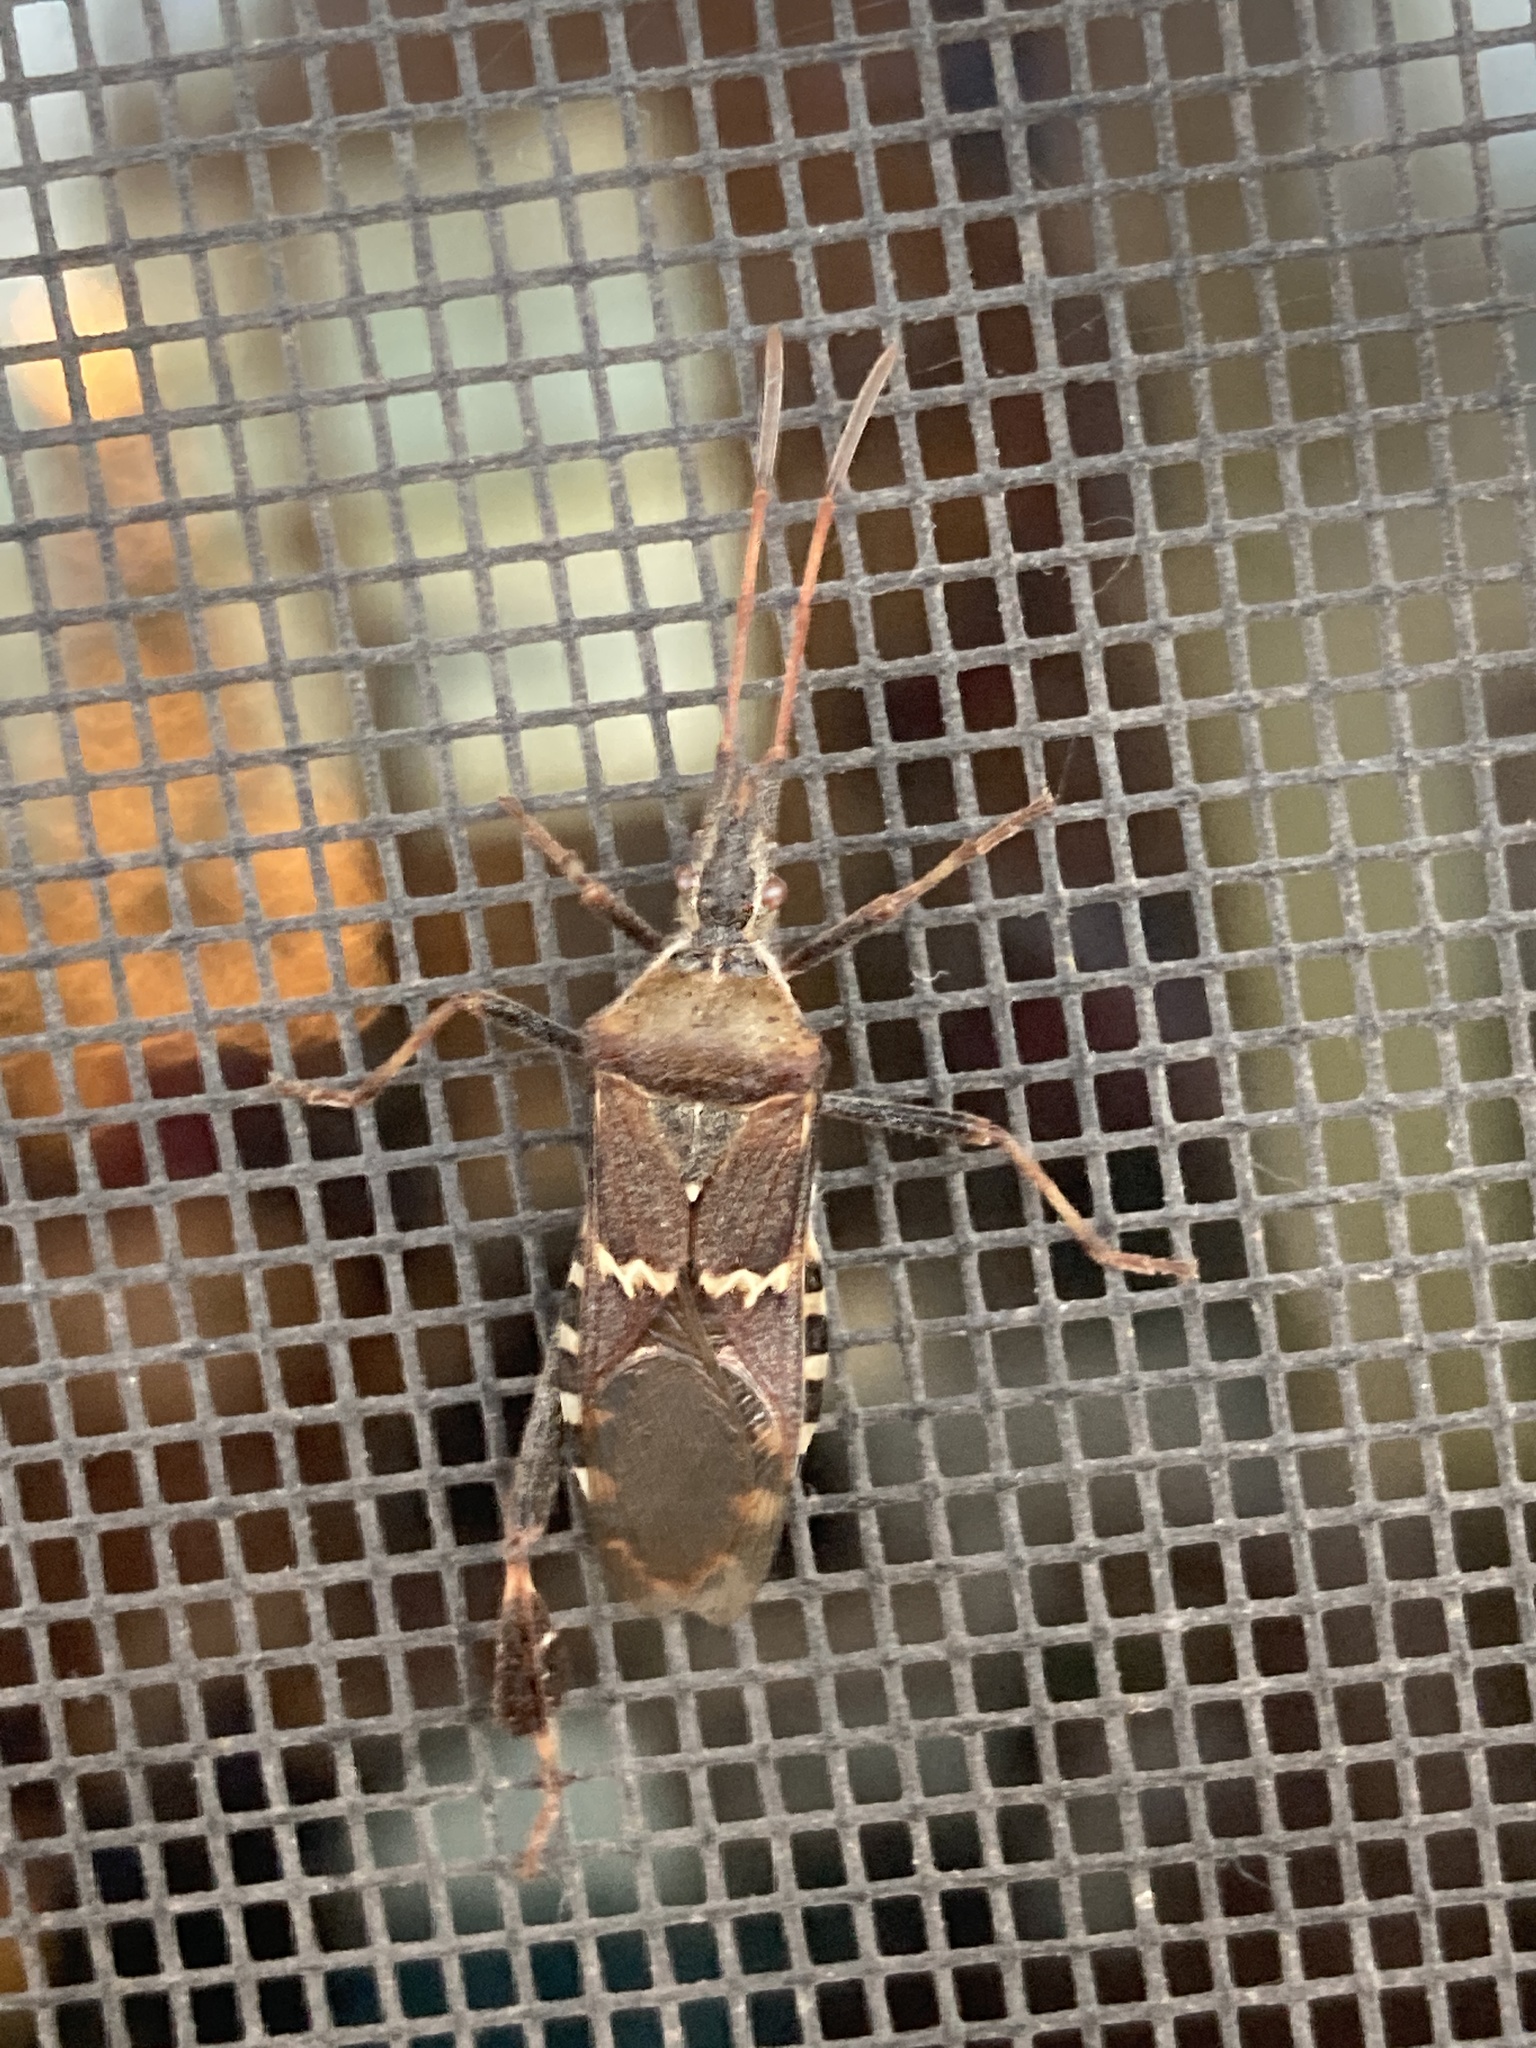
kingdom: Animalia
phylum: Arthropoda
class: Insecta
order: Hemiptera
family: Coreidae
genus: Leptoglossus
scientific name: Leptoglossus clypealis
